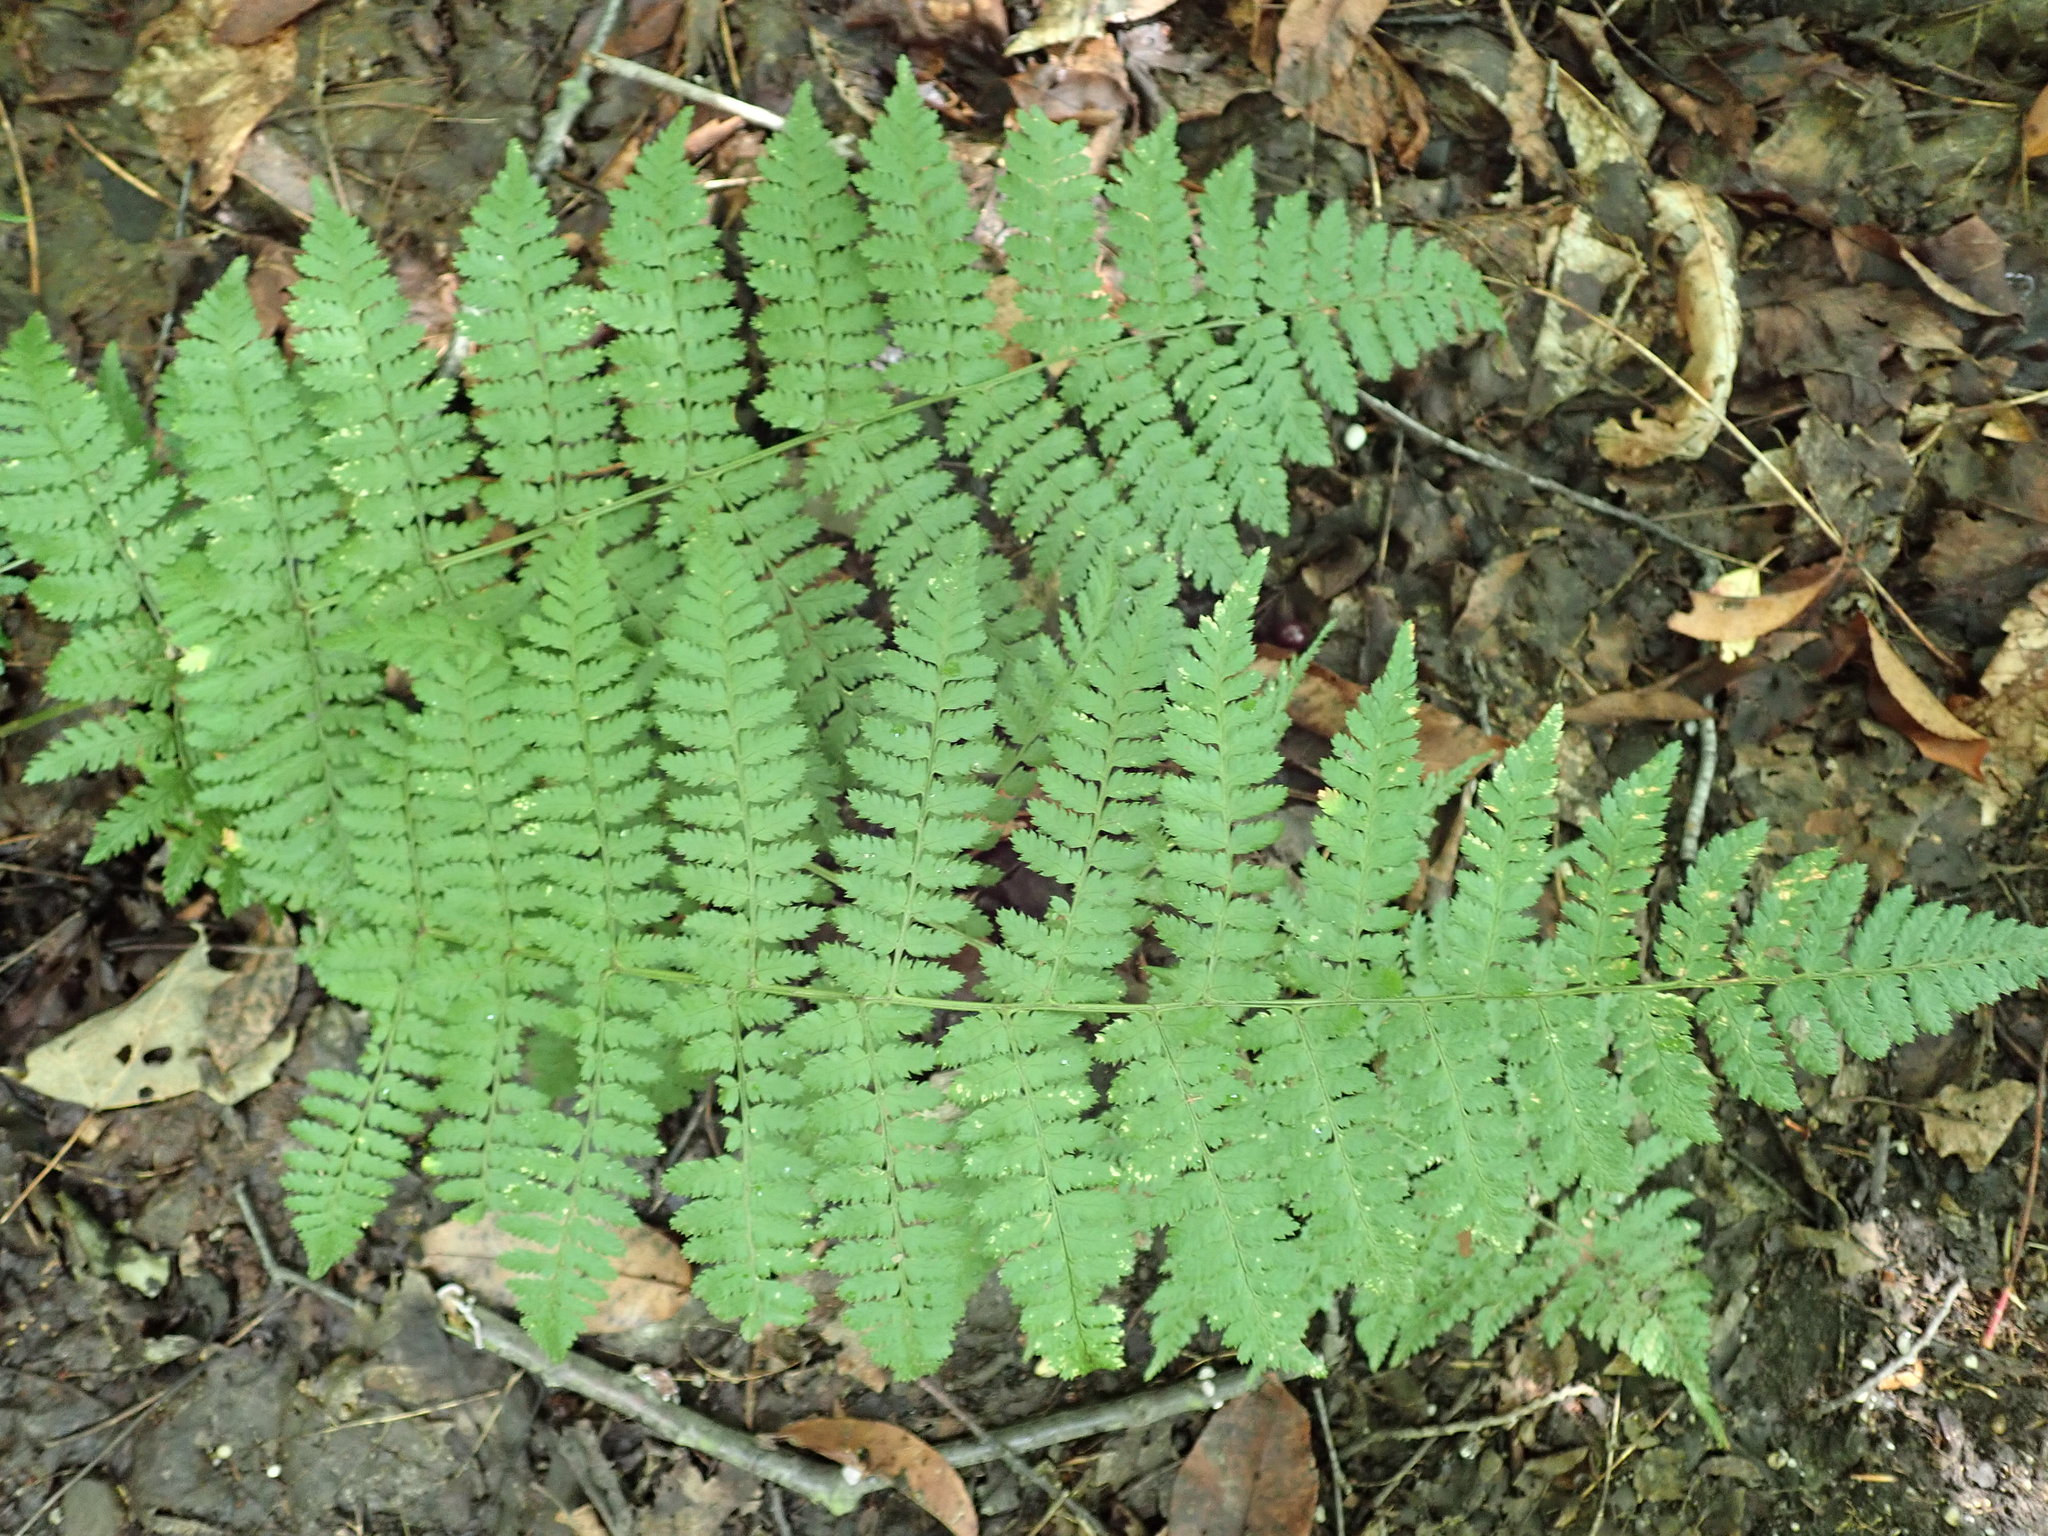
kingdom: Plantae
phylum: Tracheophyta
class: Polypodiopsida
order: Polypodiales
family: Dryopteridaceae
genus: Dryopteris
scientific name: Dryopteris intermedia
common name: Evergreen wood fern
